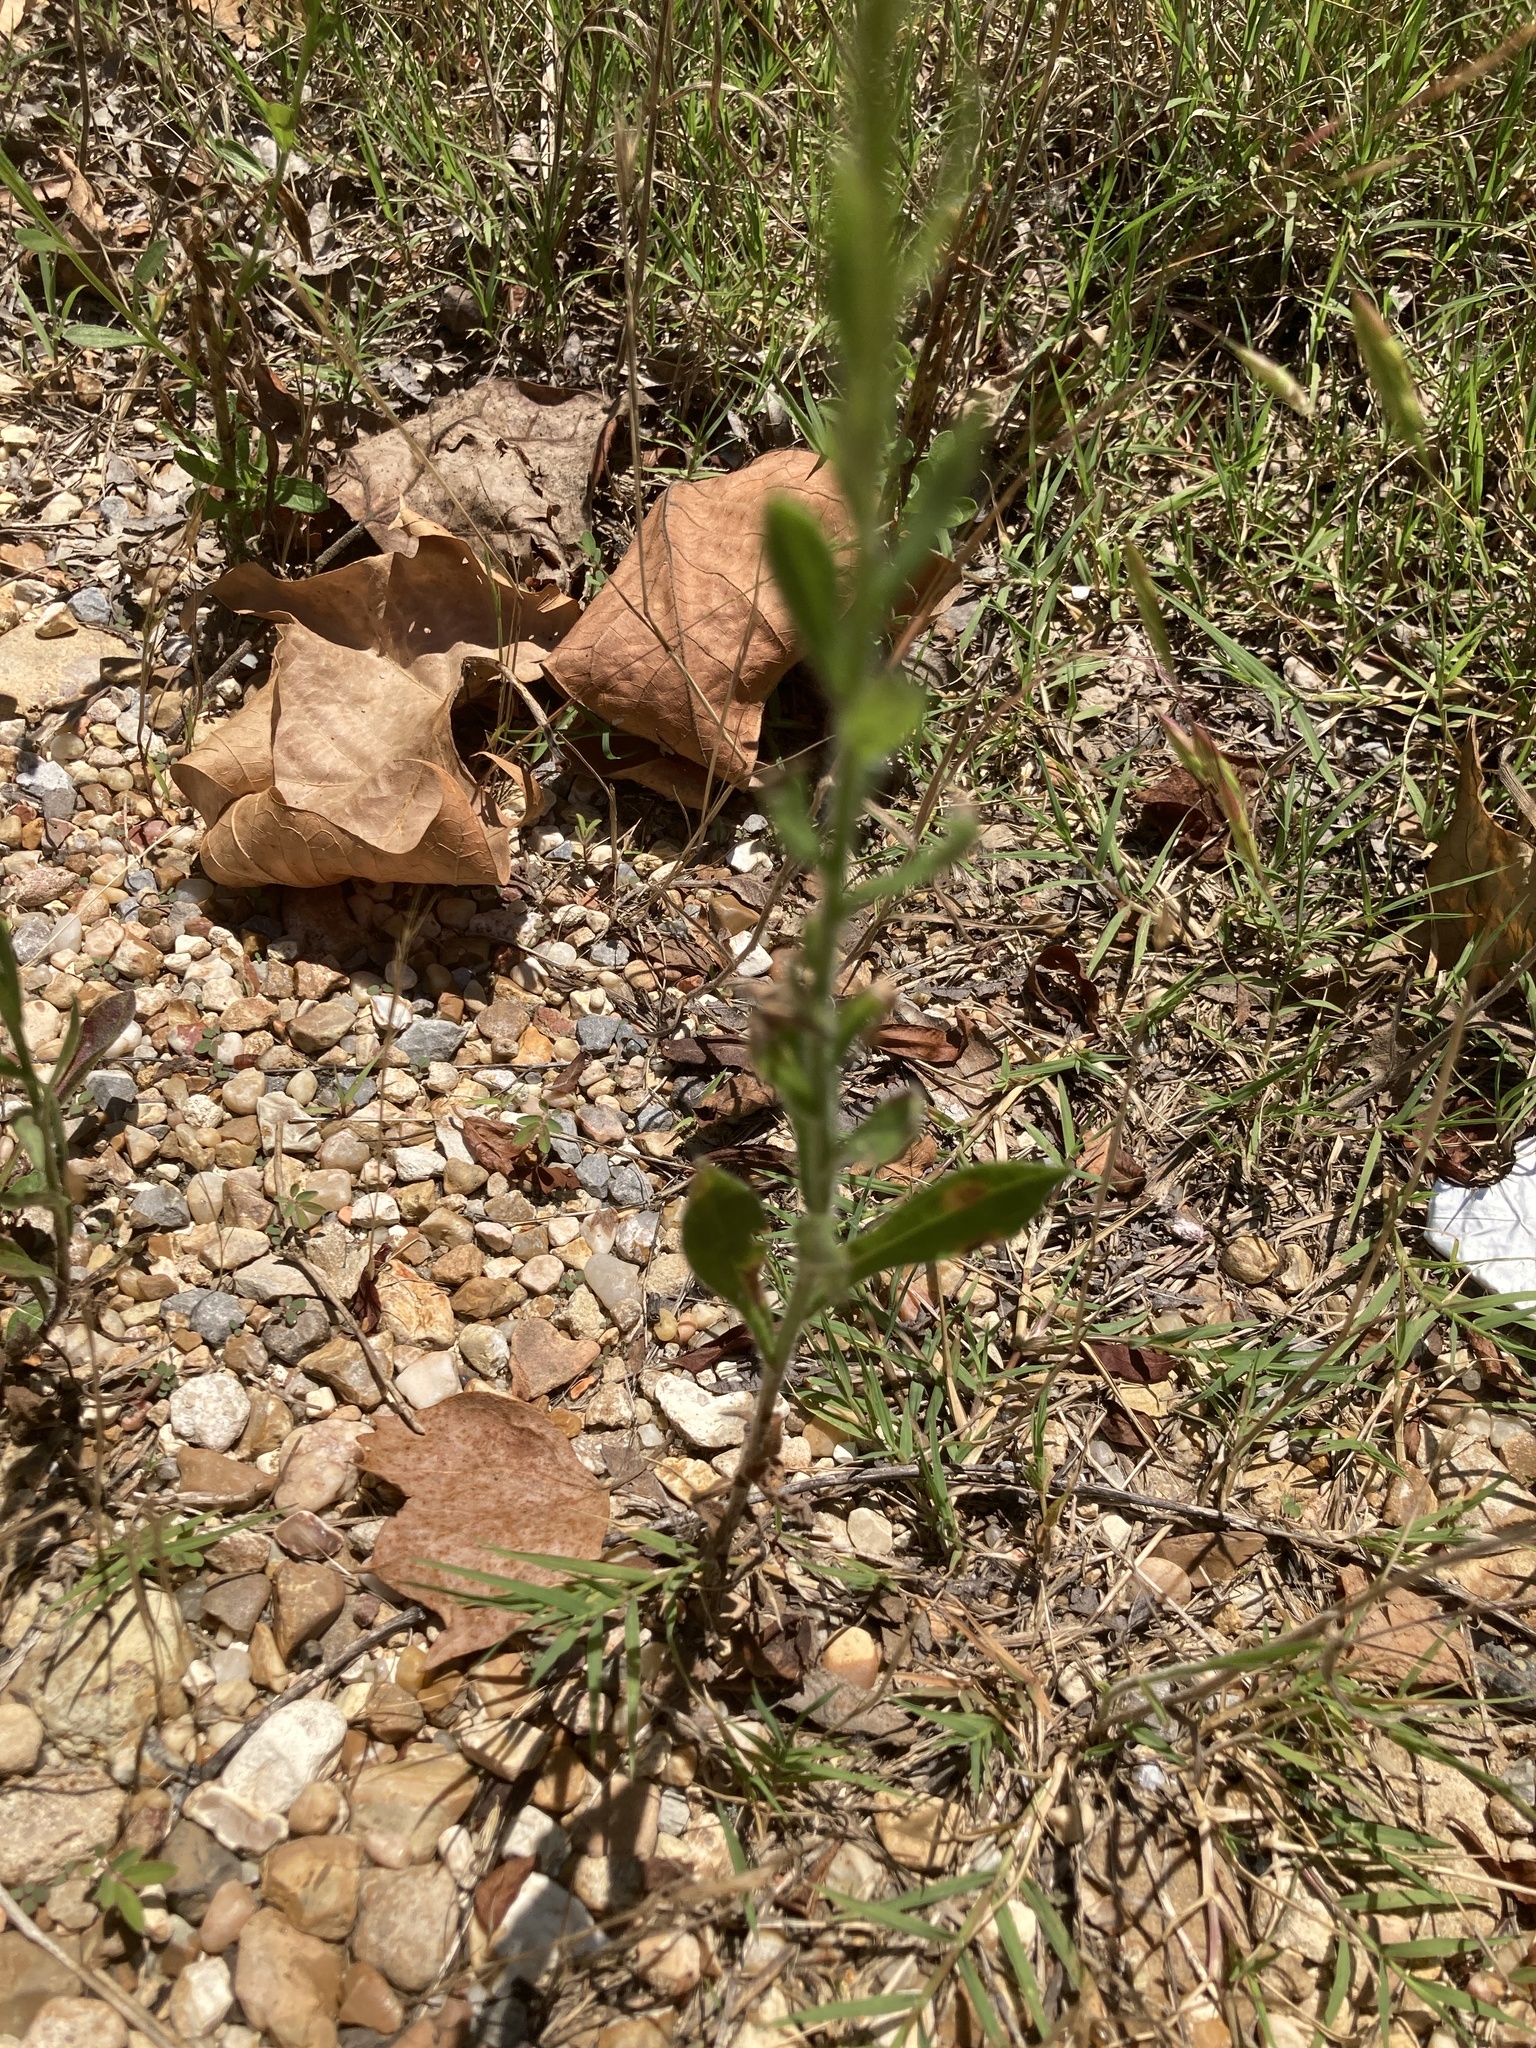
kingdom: Plantae
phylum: Tracheophyta
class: Magnoliopsida
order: Asterales
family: Asteraceae
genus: Erigeron
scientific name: Erigeron pulchellus
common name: Hairy fleabane
